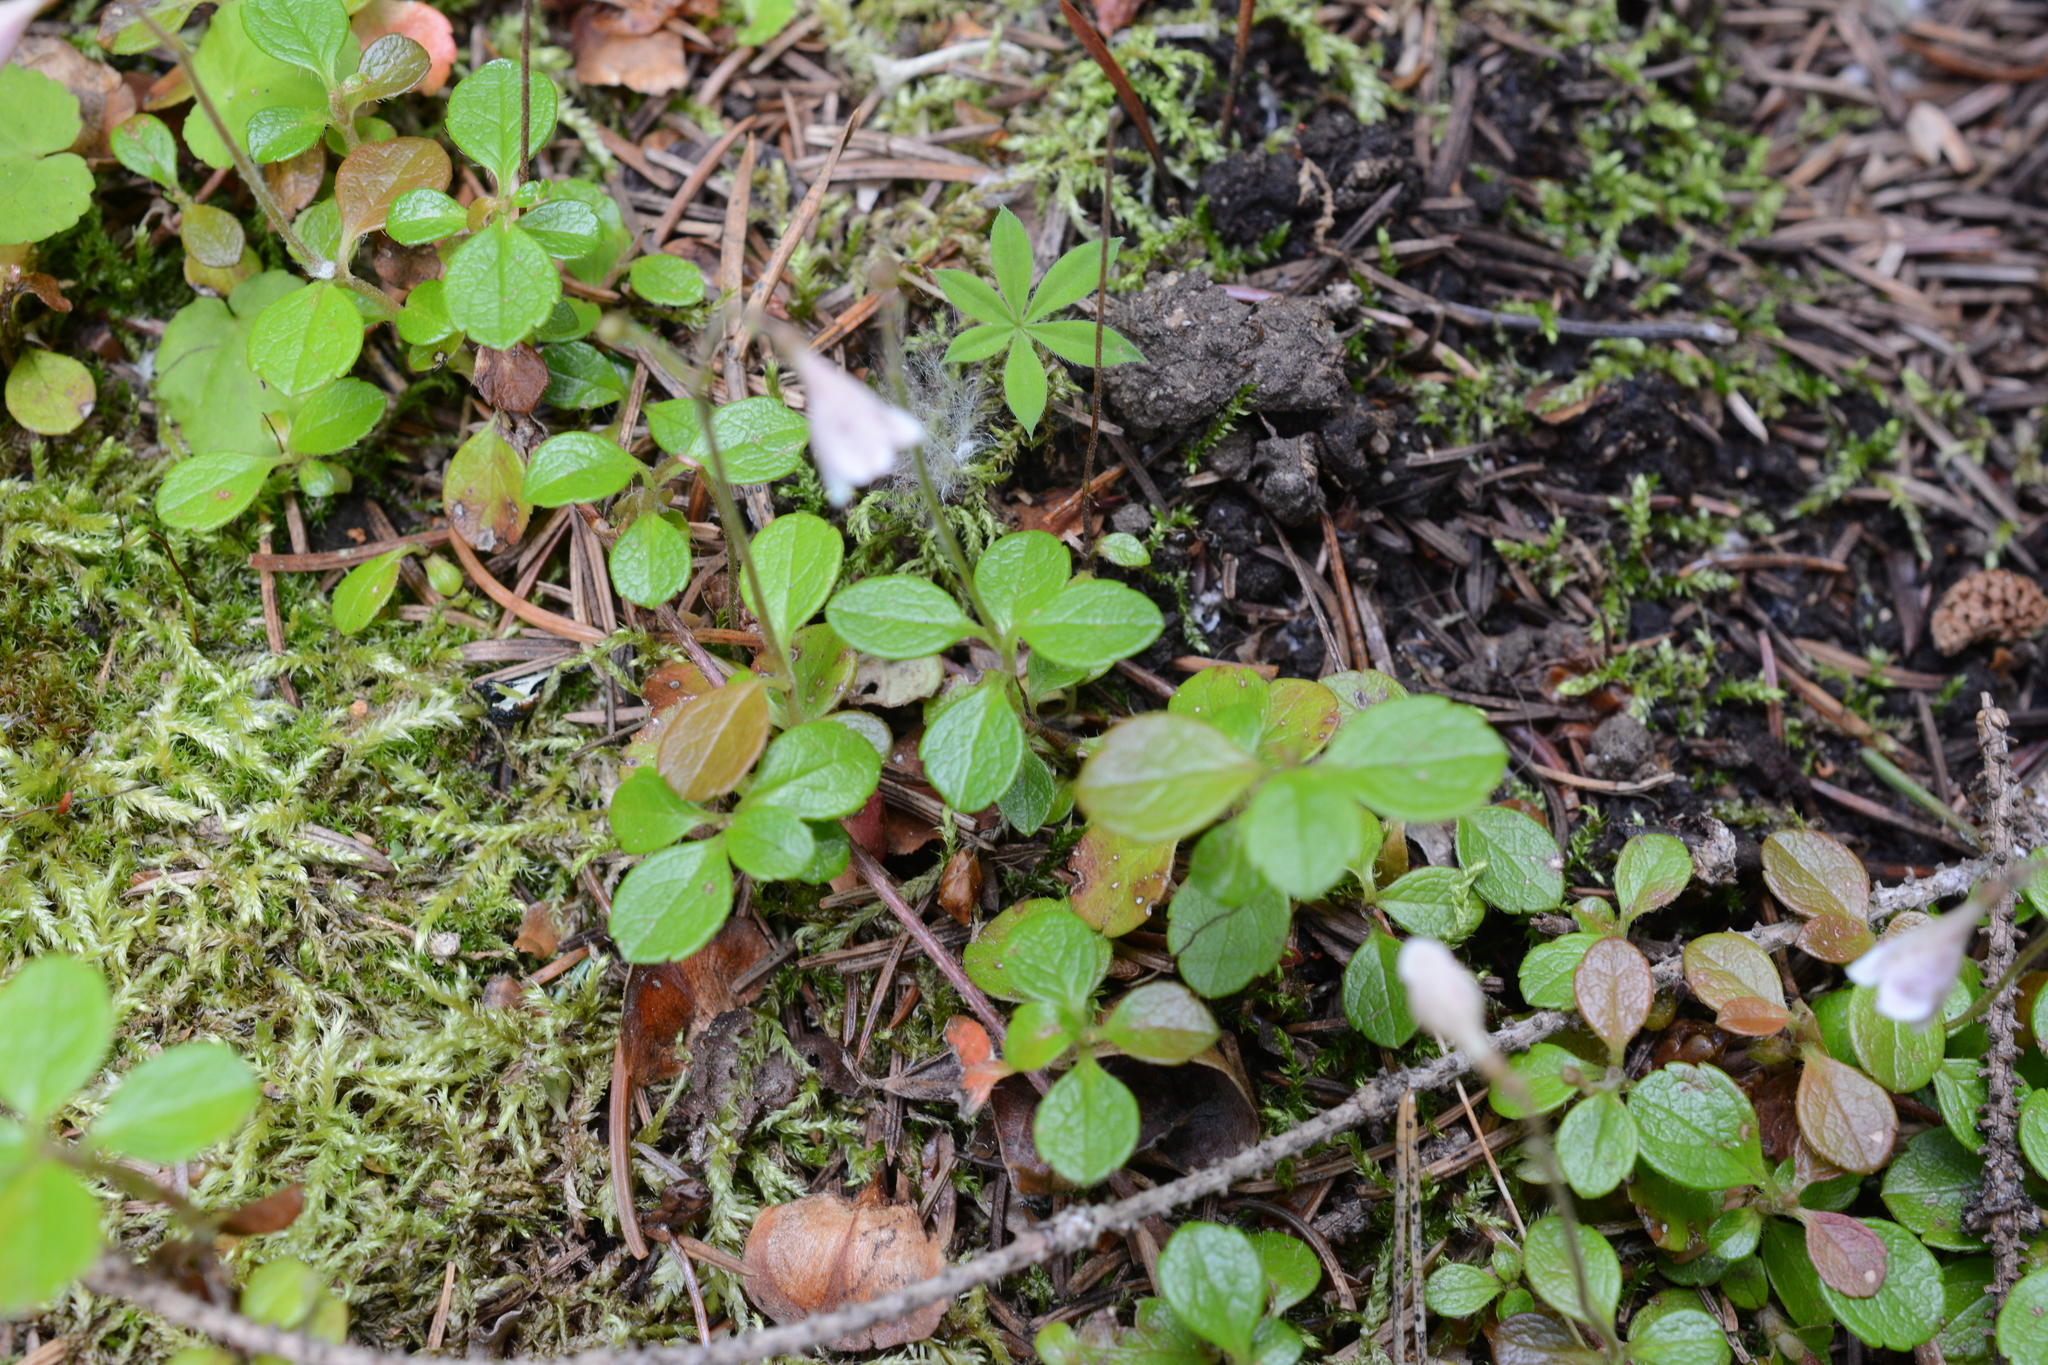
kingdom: Plantae
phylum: Tracheophyta
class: Magnoliopsida
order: Dipsacales
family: Caprifoliaceae
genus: Linnaea
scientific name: Linnaea borealis
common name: Twinflower
